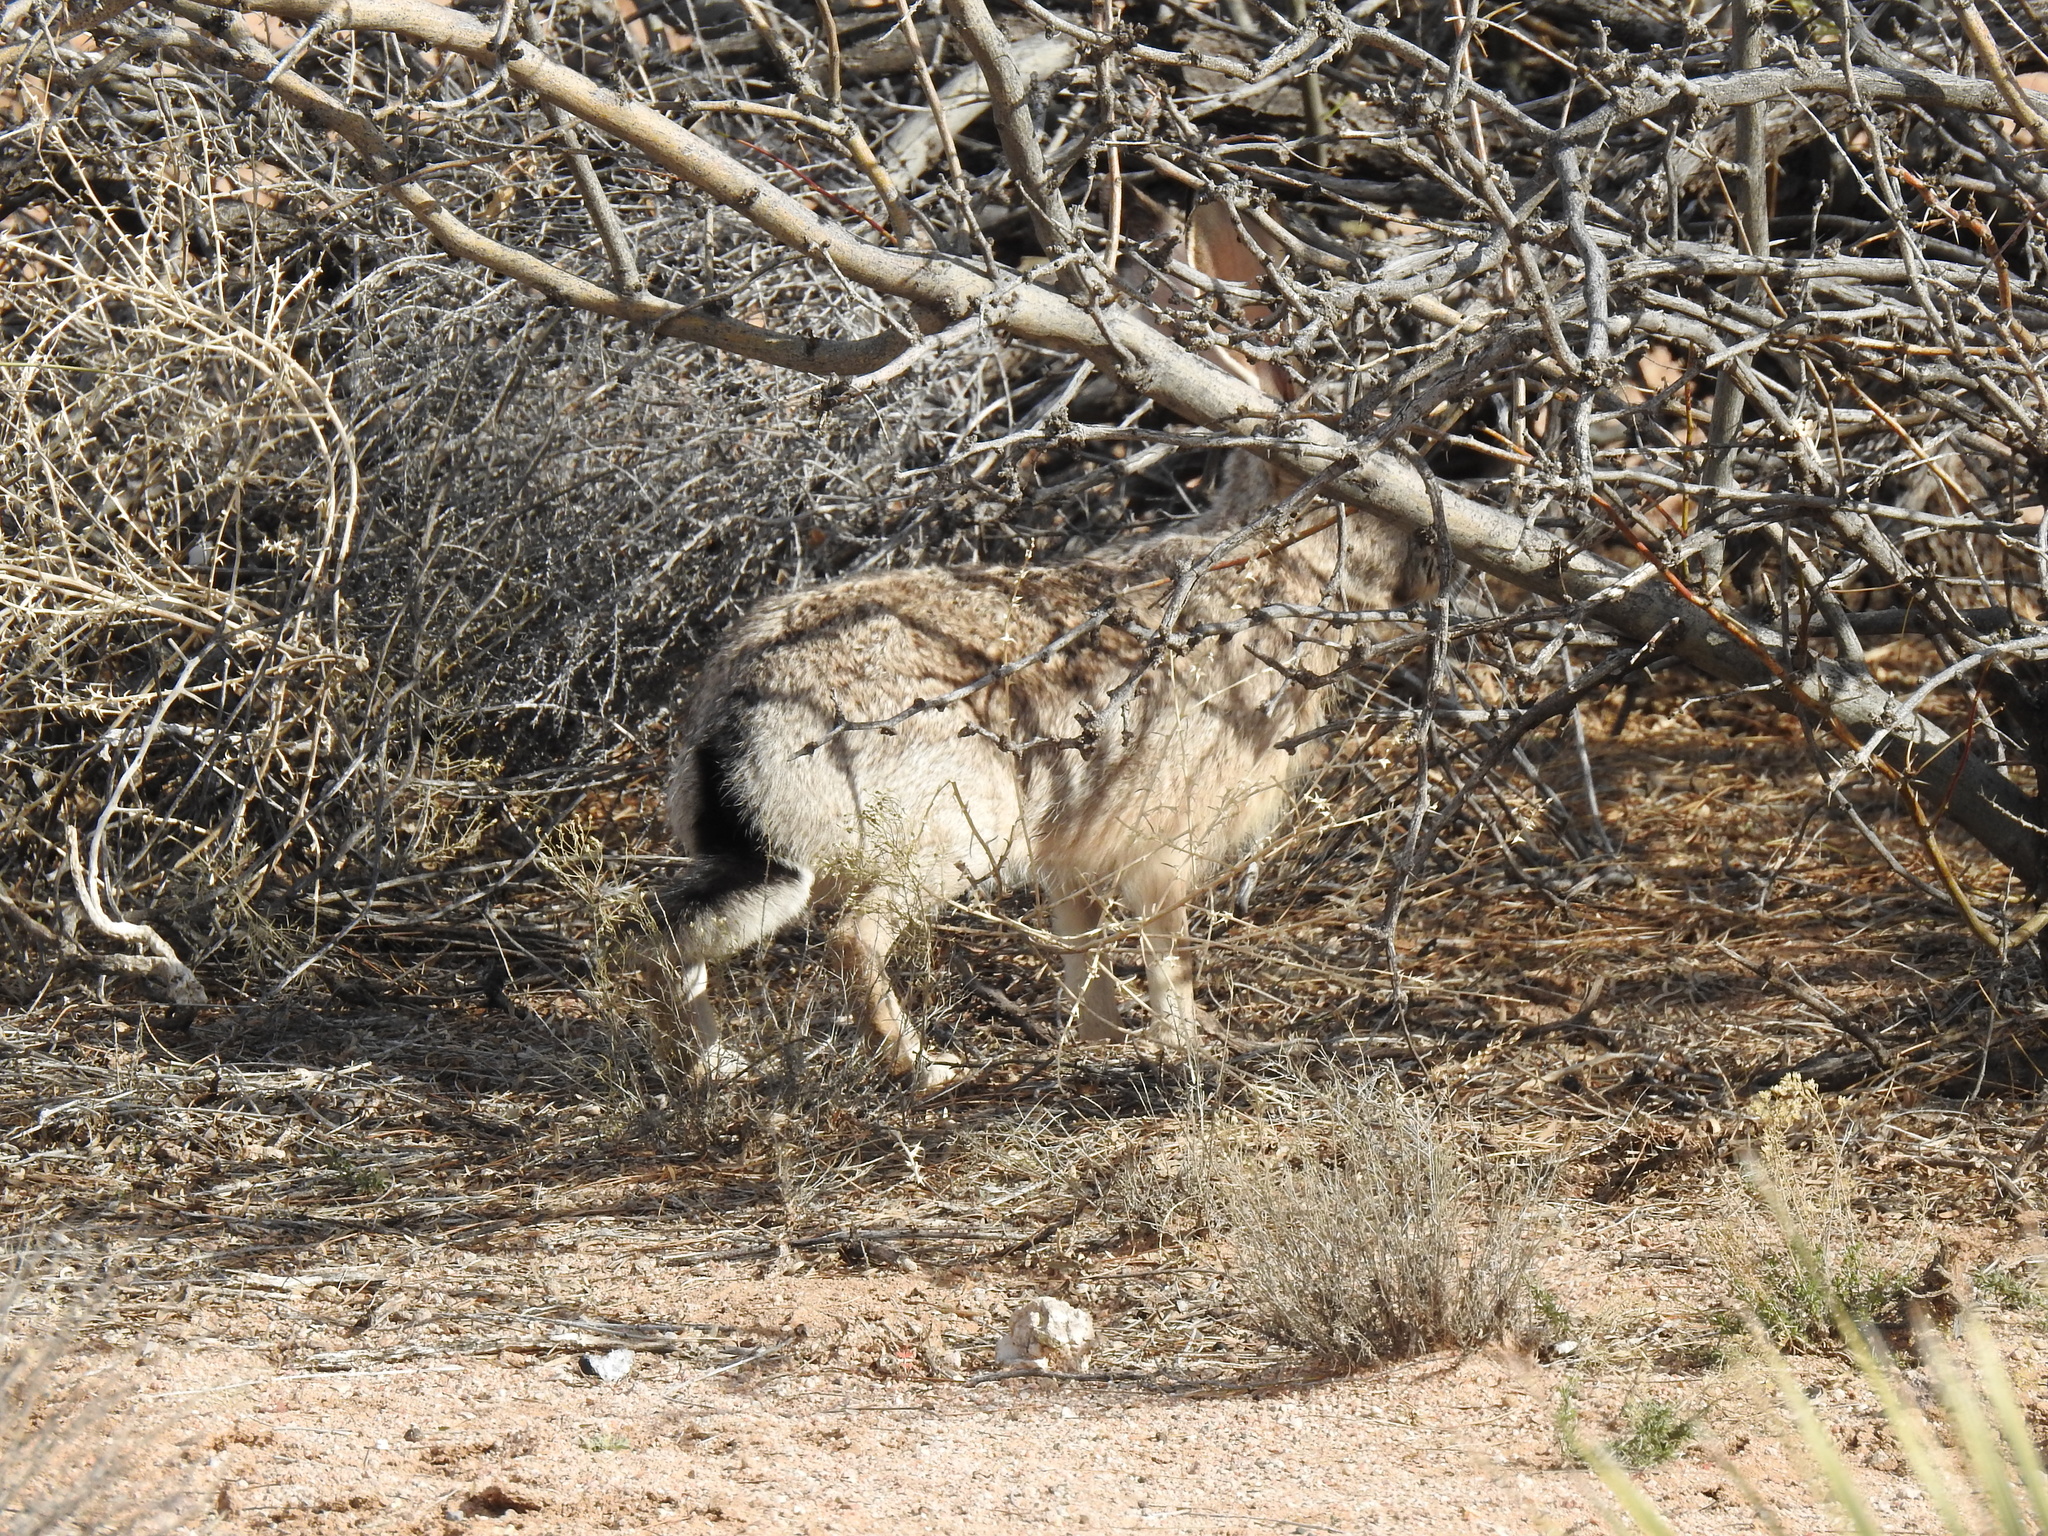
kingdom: Animalia
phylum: Chordata
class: Mammalia
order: Lagomorpha
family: Leporidae
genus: Lepus
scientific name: Lepus californicus
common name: Black-tailed jackrabbit
